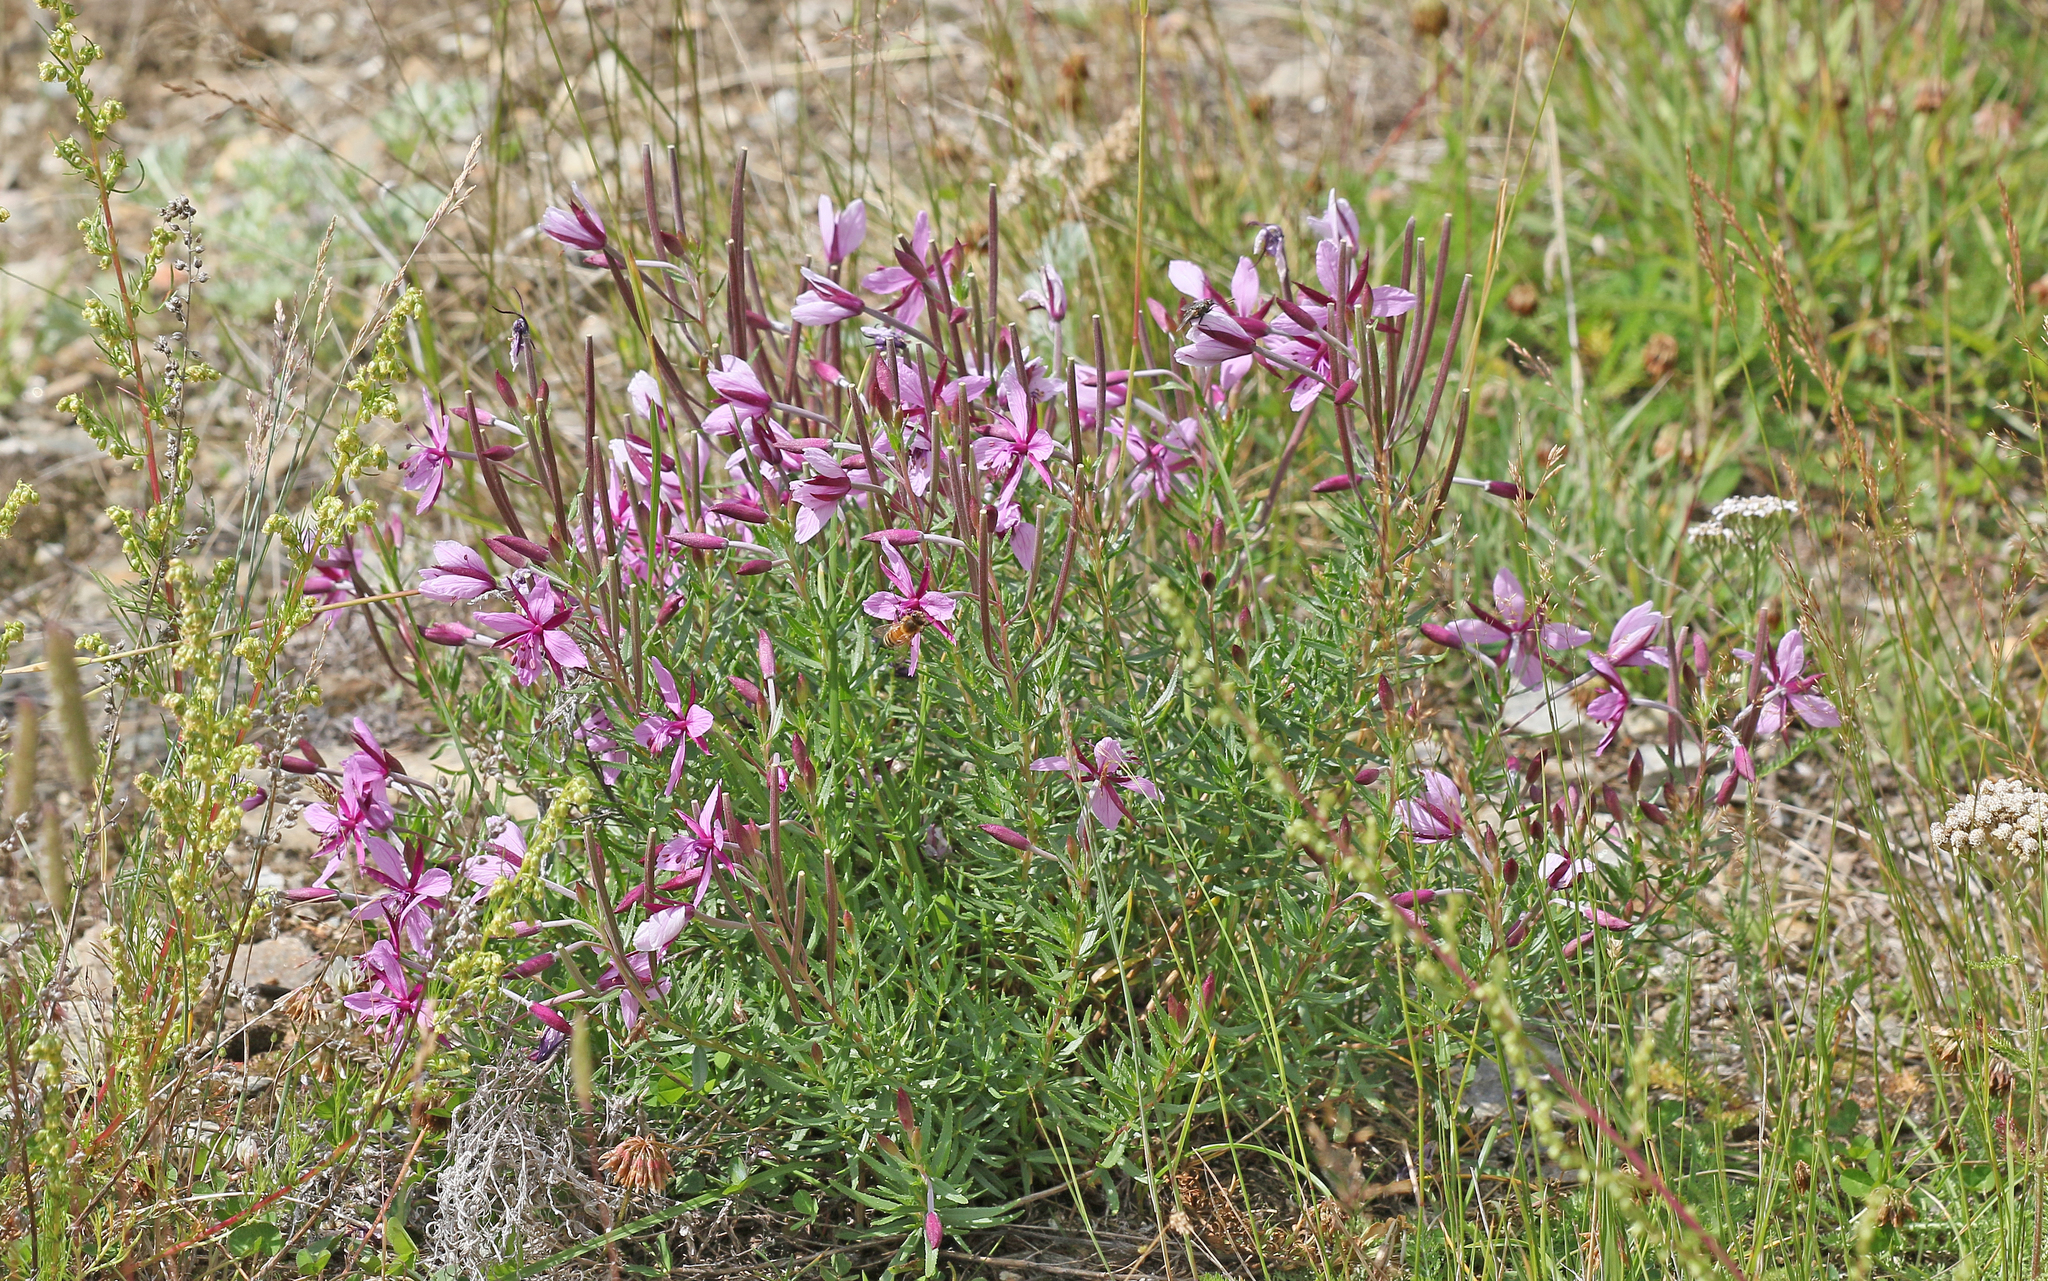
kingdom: Plantae
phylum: Tracheophyta
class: Magnoliopsida
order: Myrtales
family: Onagraceae
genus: Chamaenerion
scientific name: Chamaenerion fleischeri
